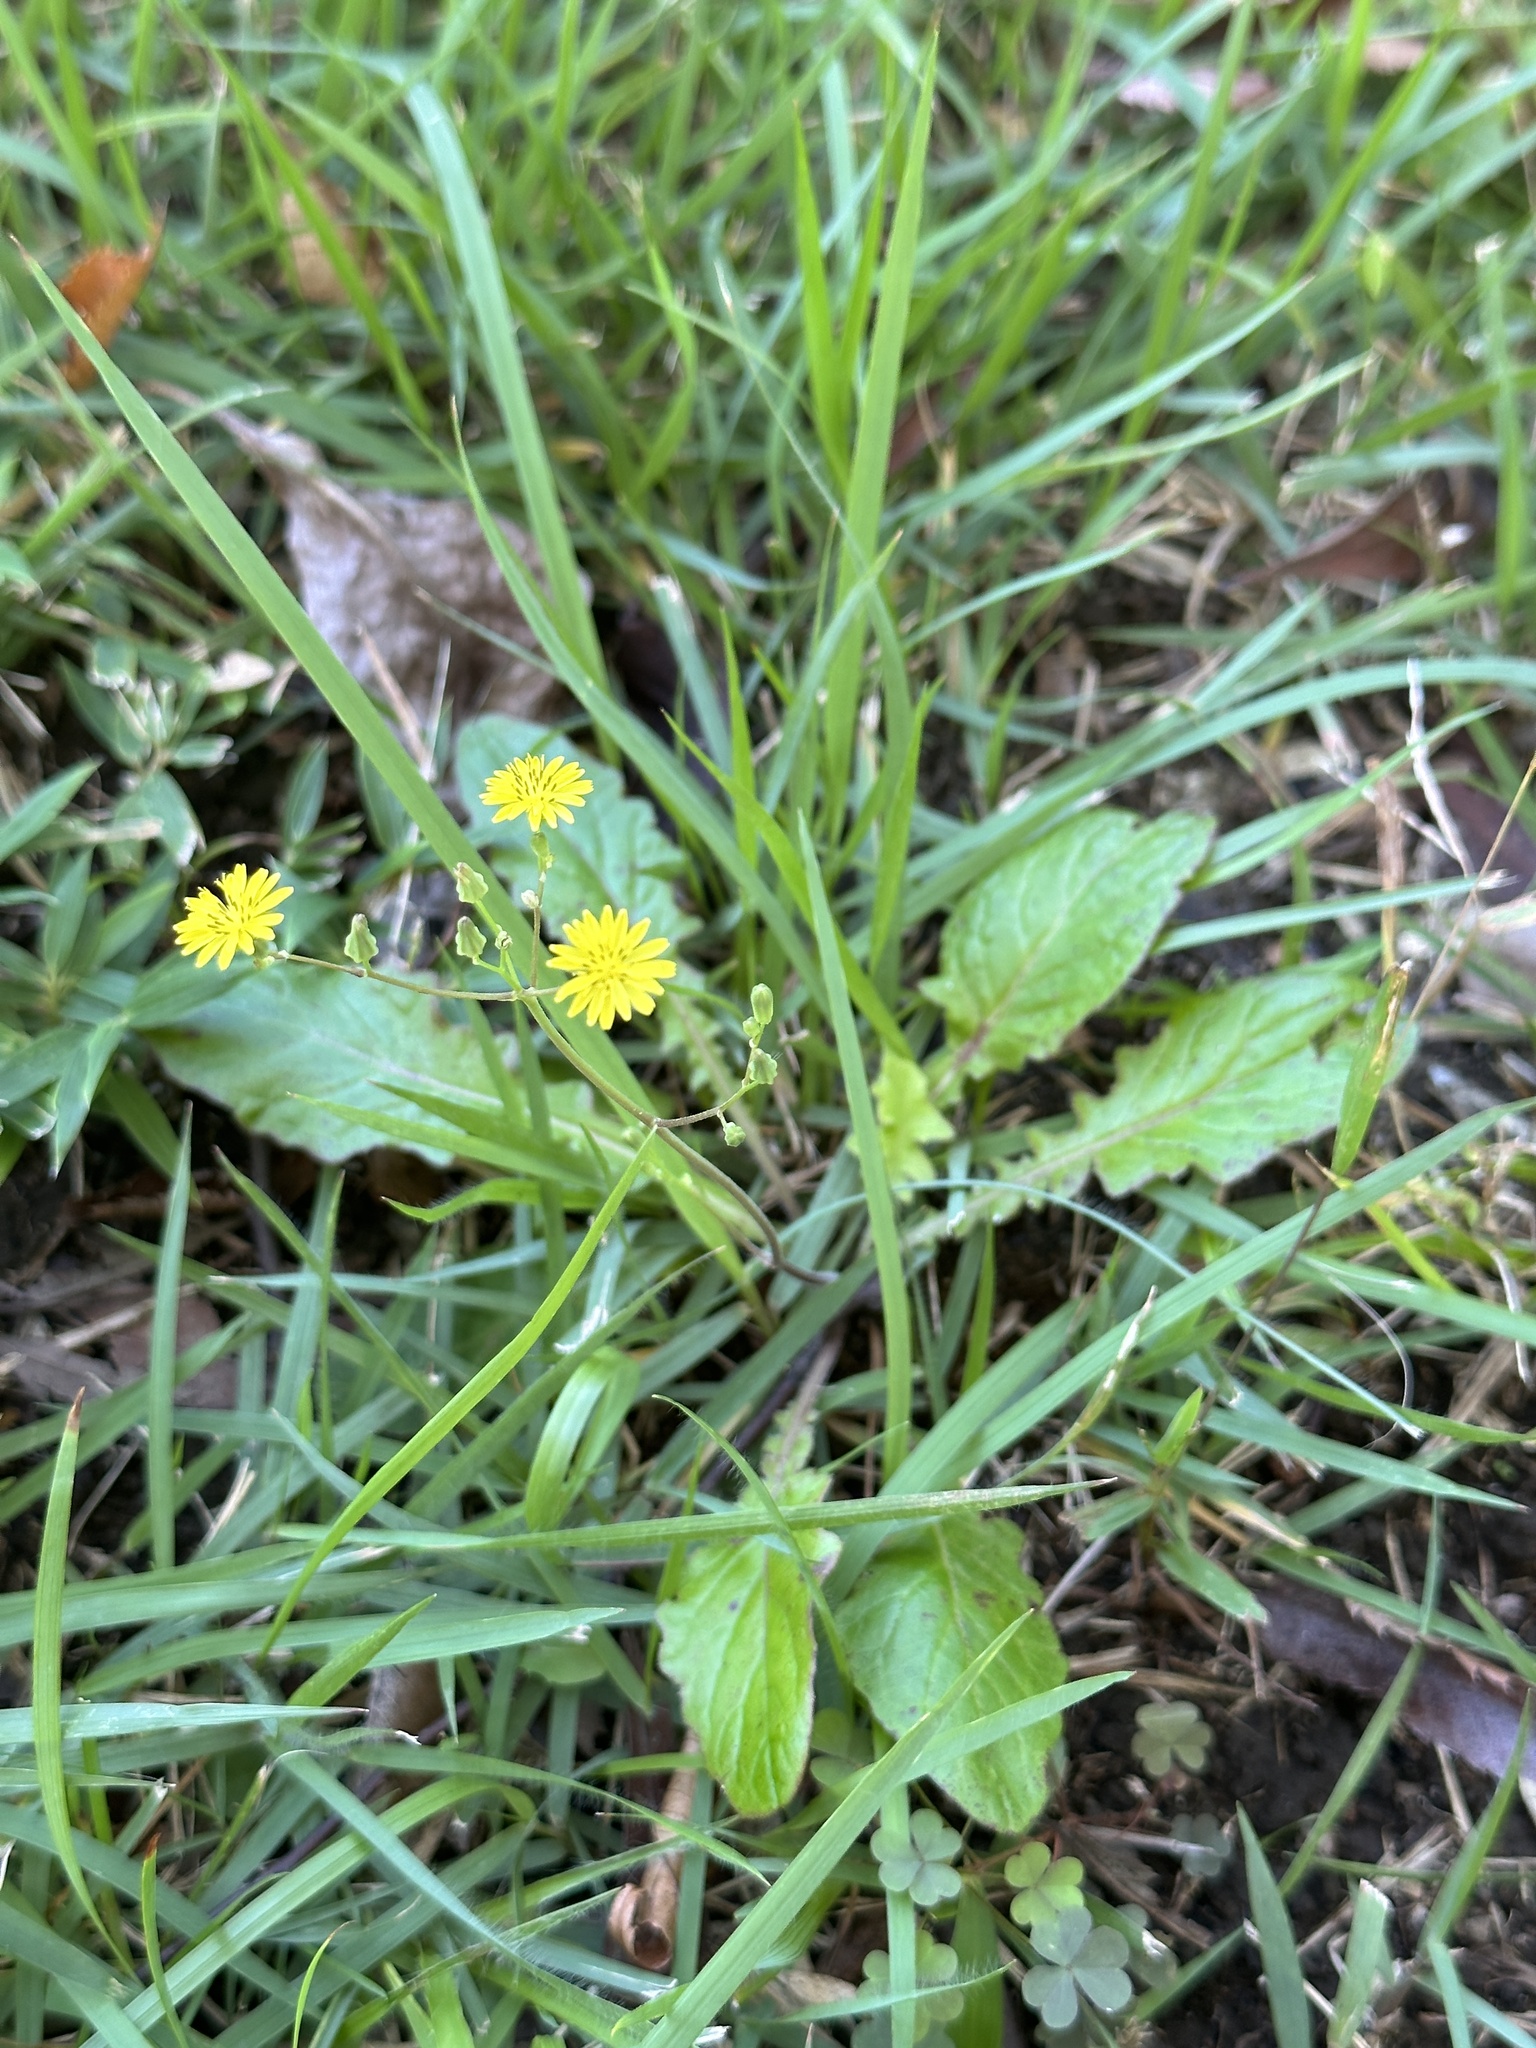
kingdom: Plantae
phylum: Tracheophyta
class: Magnoliopsida
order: Asterales
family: Asteraceae
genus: Youngia
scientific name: Youngia japonica
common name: Oriental false hawksbeard
